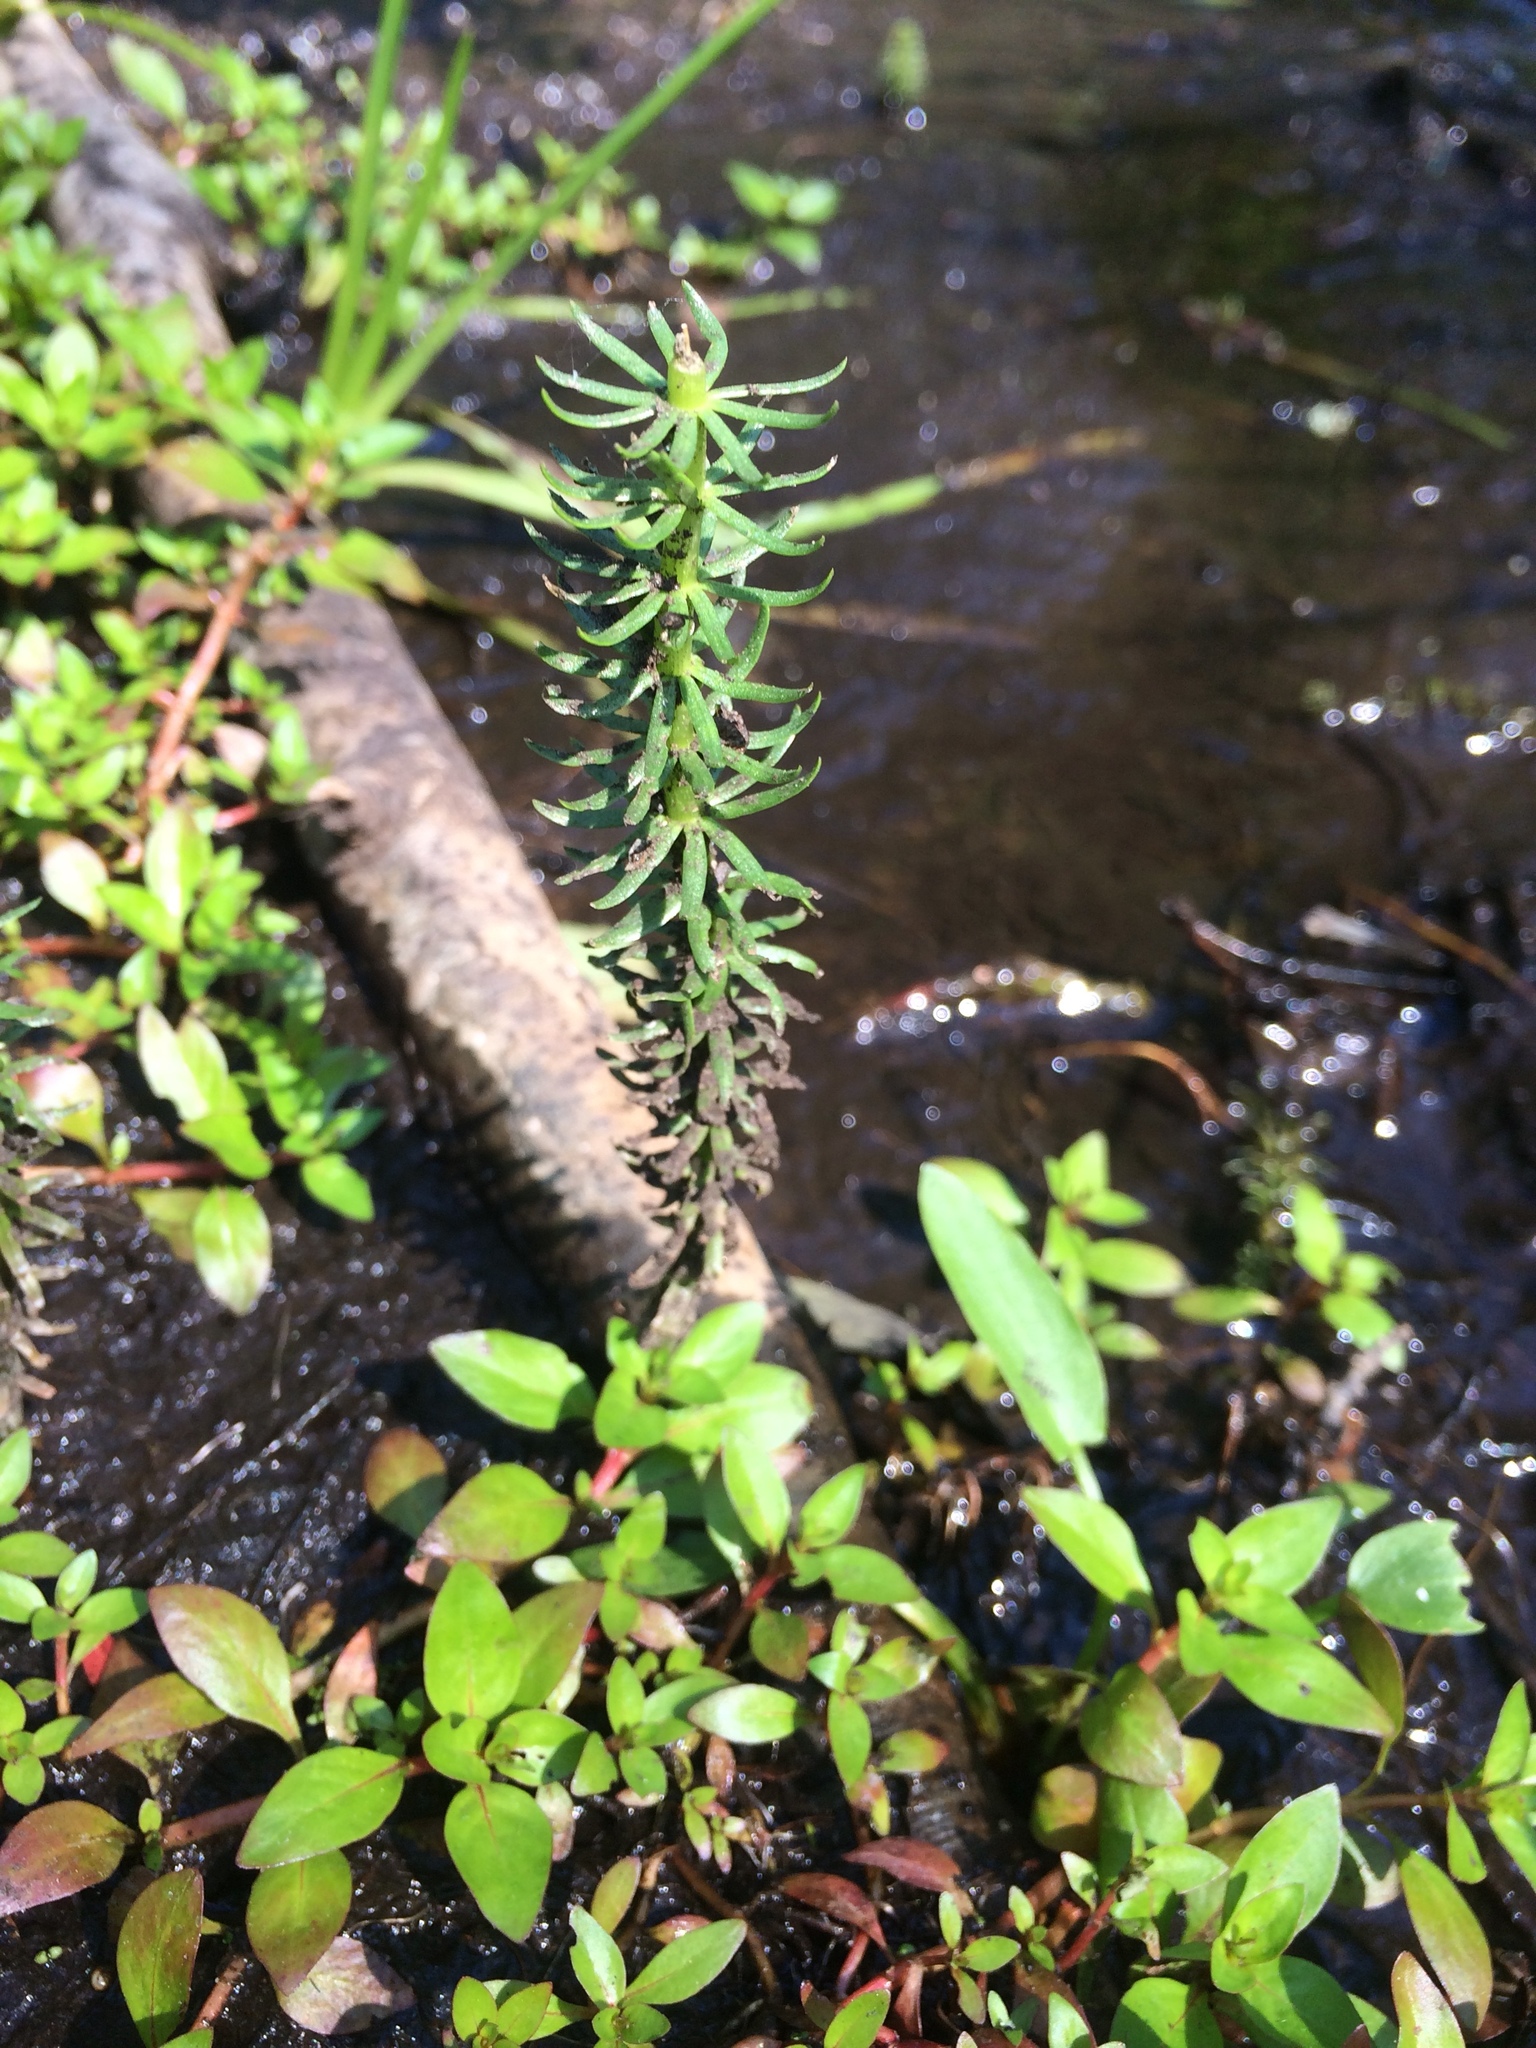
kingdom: Plantae
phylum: Tracheophyta
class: Magnoliopsida
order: Lamiales
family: Plantaginaceae
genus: Hippuris
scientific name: Hippuris vulgaris
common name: Mare's-tail
